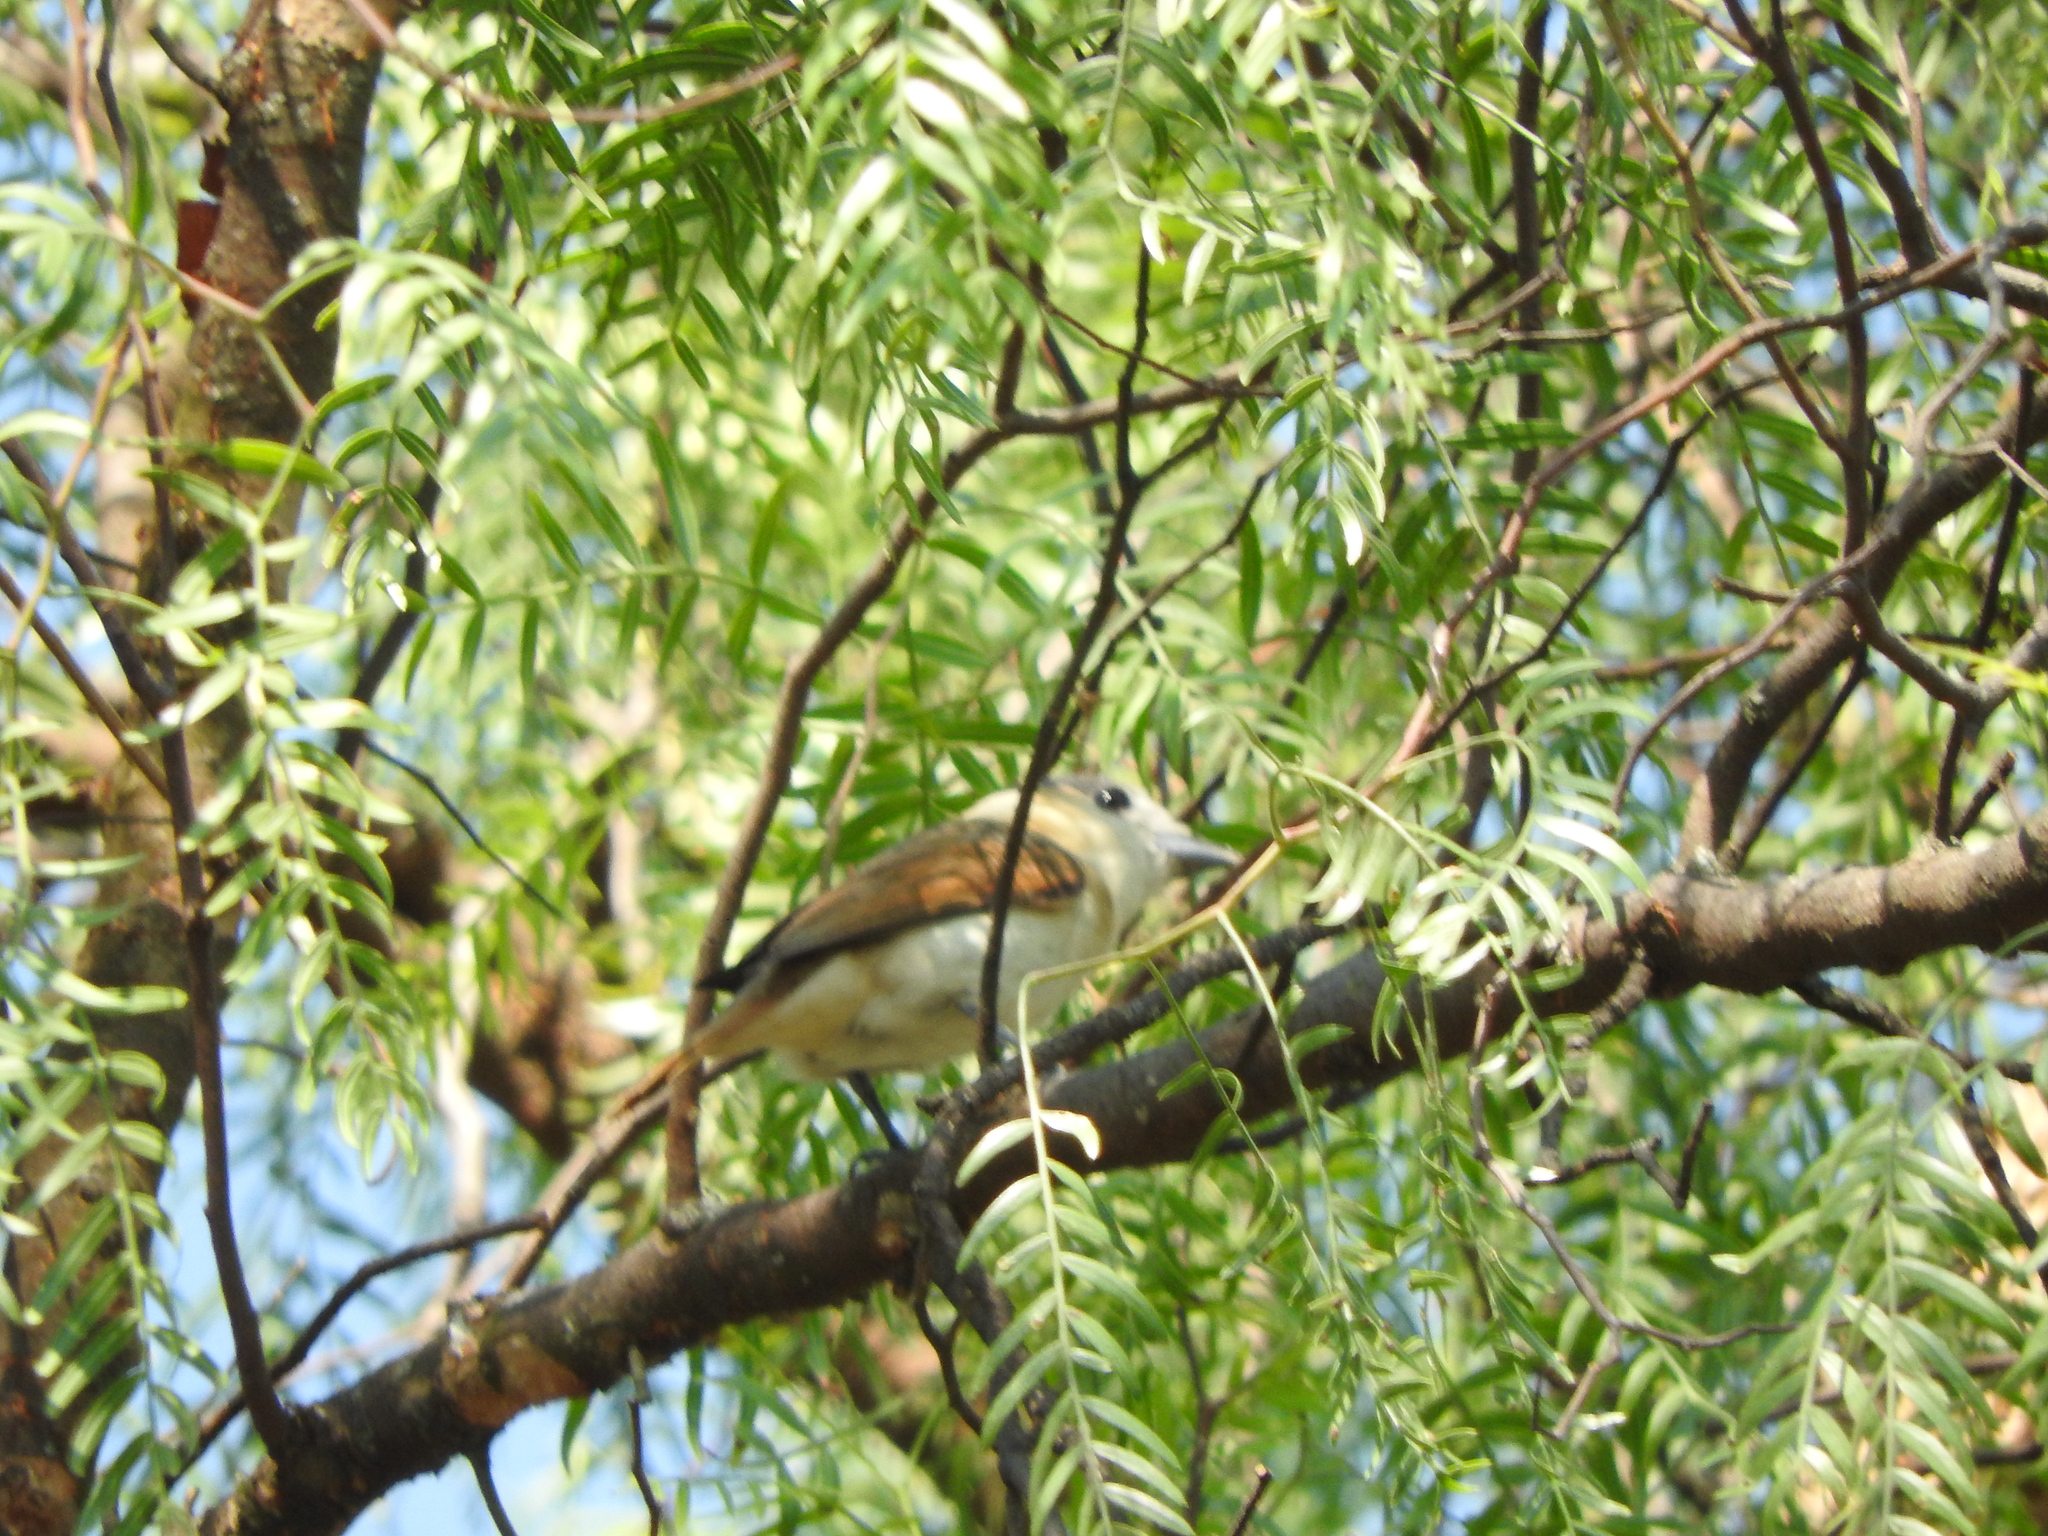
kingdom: Animalia
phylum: Chordata
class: Aves
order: Passeriformes
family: Cotingidae
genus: Pachyramphus
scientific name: Pachyramphus aglaiae
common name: Rose-throated becard
